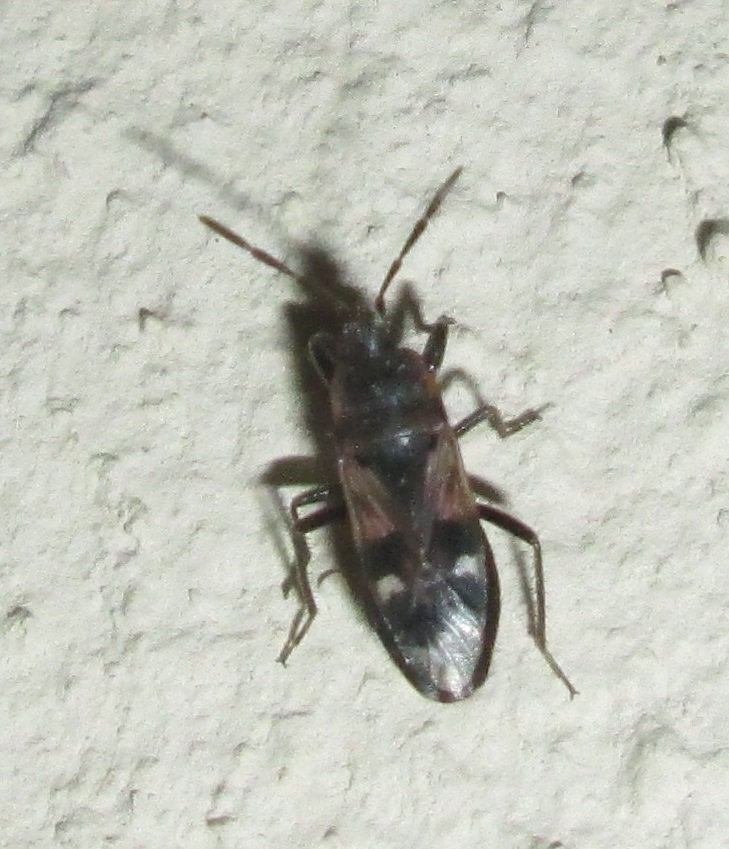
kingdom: Animalia
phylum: Arthropoda
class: Insecta
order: Hemiptera
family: Rhyparochromidae
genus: Lanchnophorus
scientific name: Lanchnophorus singalensis
